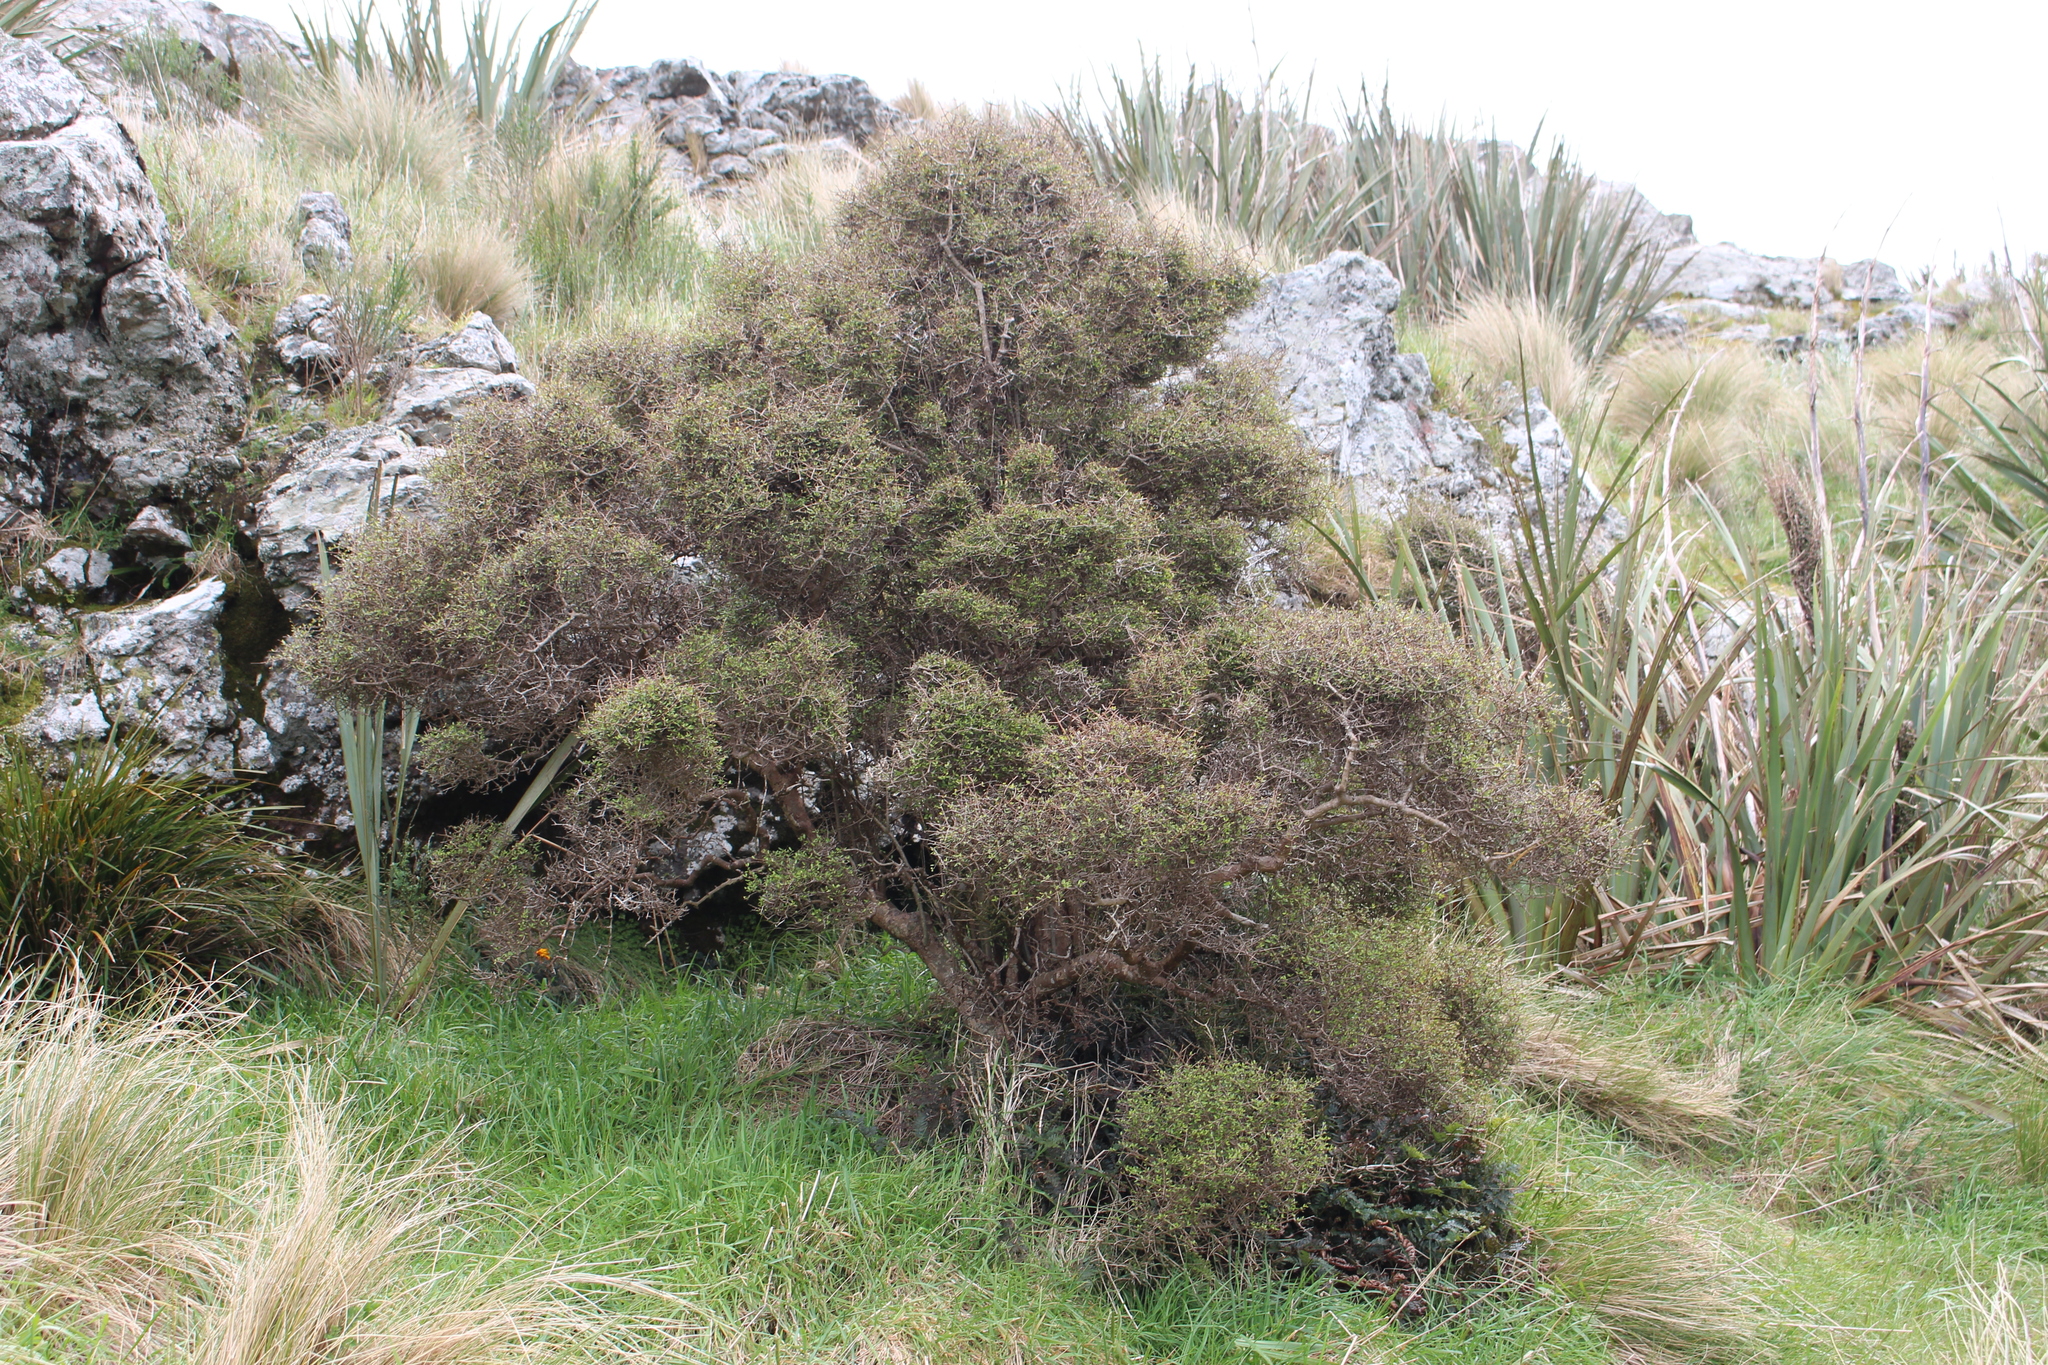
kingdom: Plantae
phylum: Tracheophyta
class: Magnoliopsida
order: Gentianales
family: Rubiaceae
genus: Coprosma
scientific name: Coprosma propinqua
